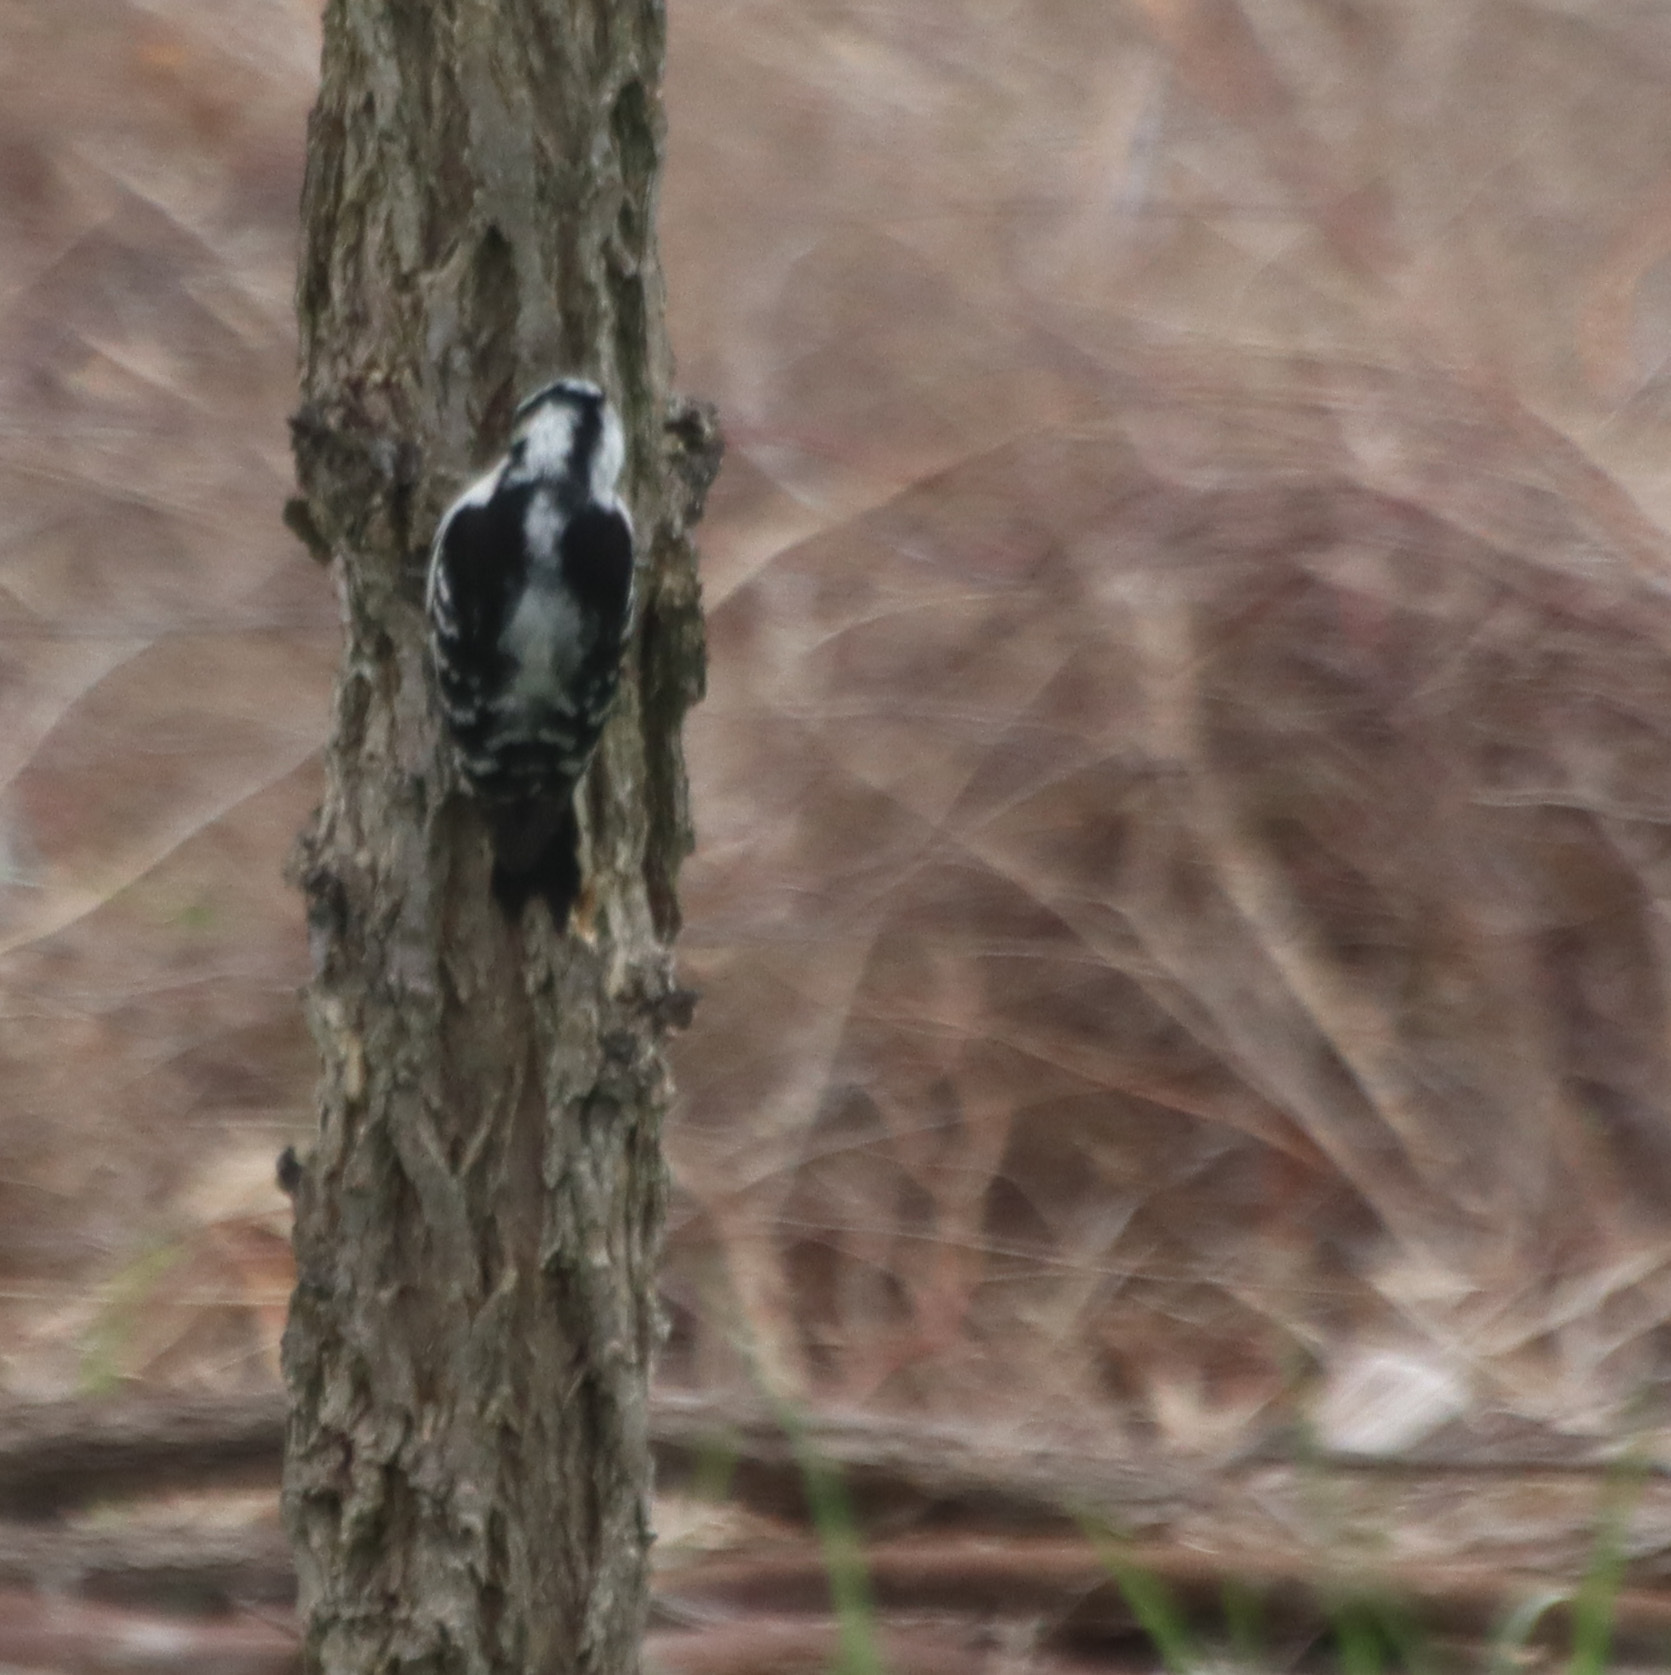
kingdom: Animalia
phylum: Chordata
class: Aves
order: Piciformes
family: Picidae
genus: Dryobates
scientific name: Dryobates pubescens
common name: Downy woodpecker
